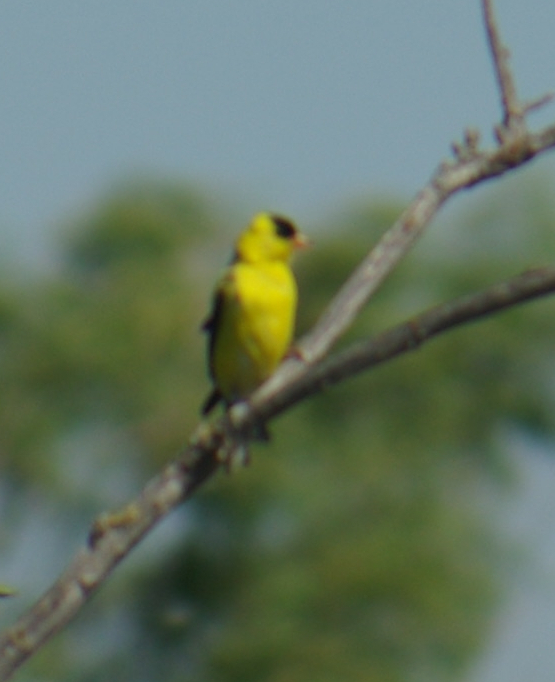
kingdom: Animalia
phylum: Chordata
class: Aves
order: Passeriformes
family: Fringillidae
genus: Spinus
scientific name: Spinus tristis
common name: American goldfinch
